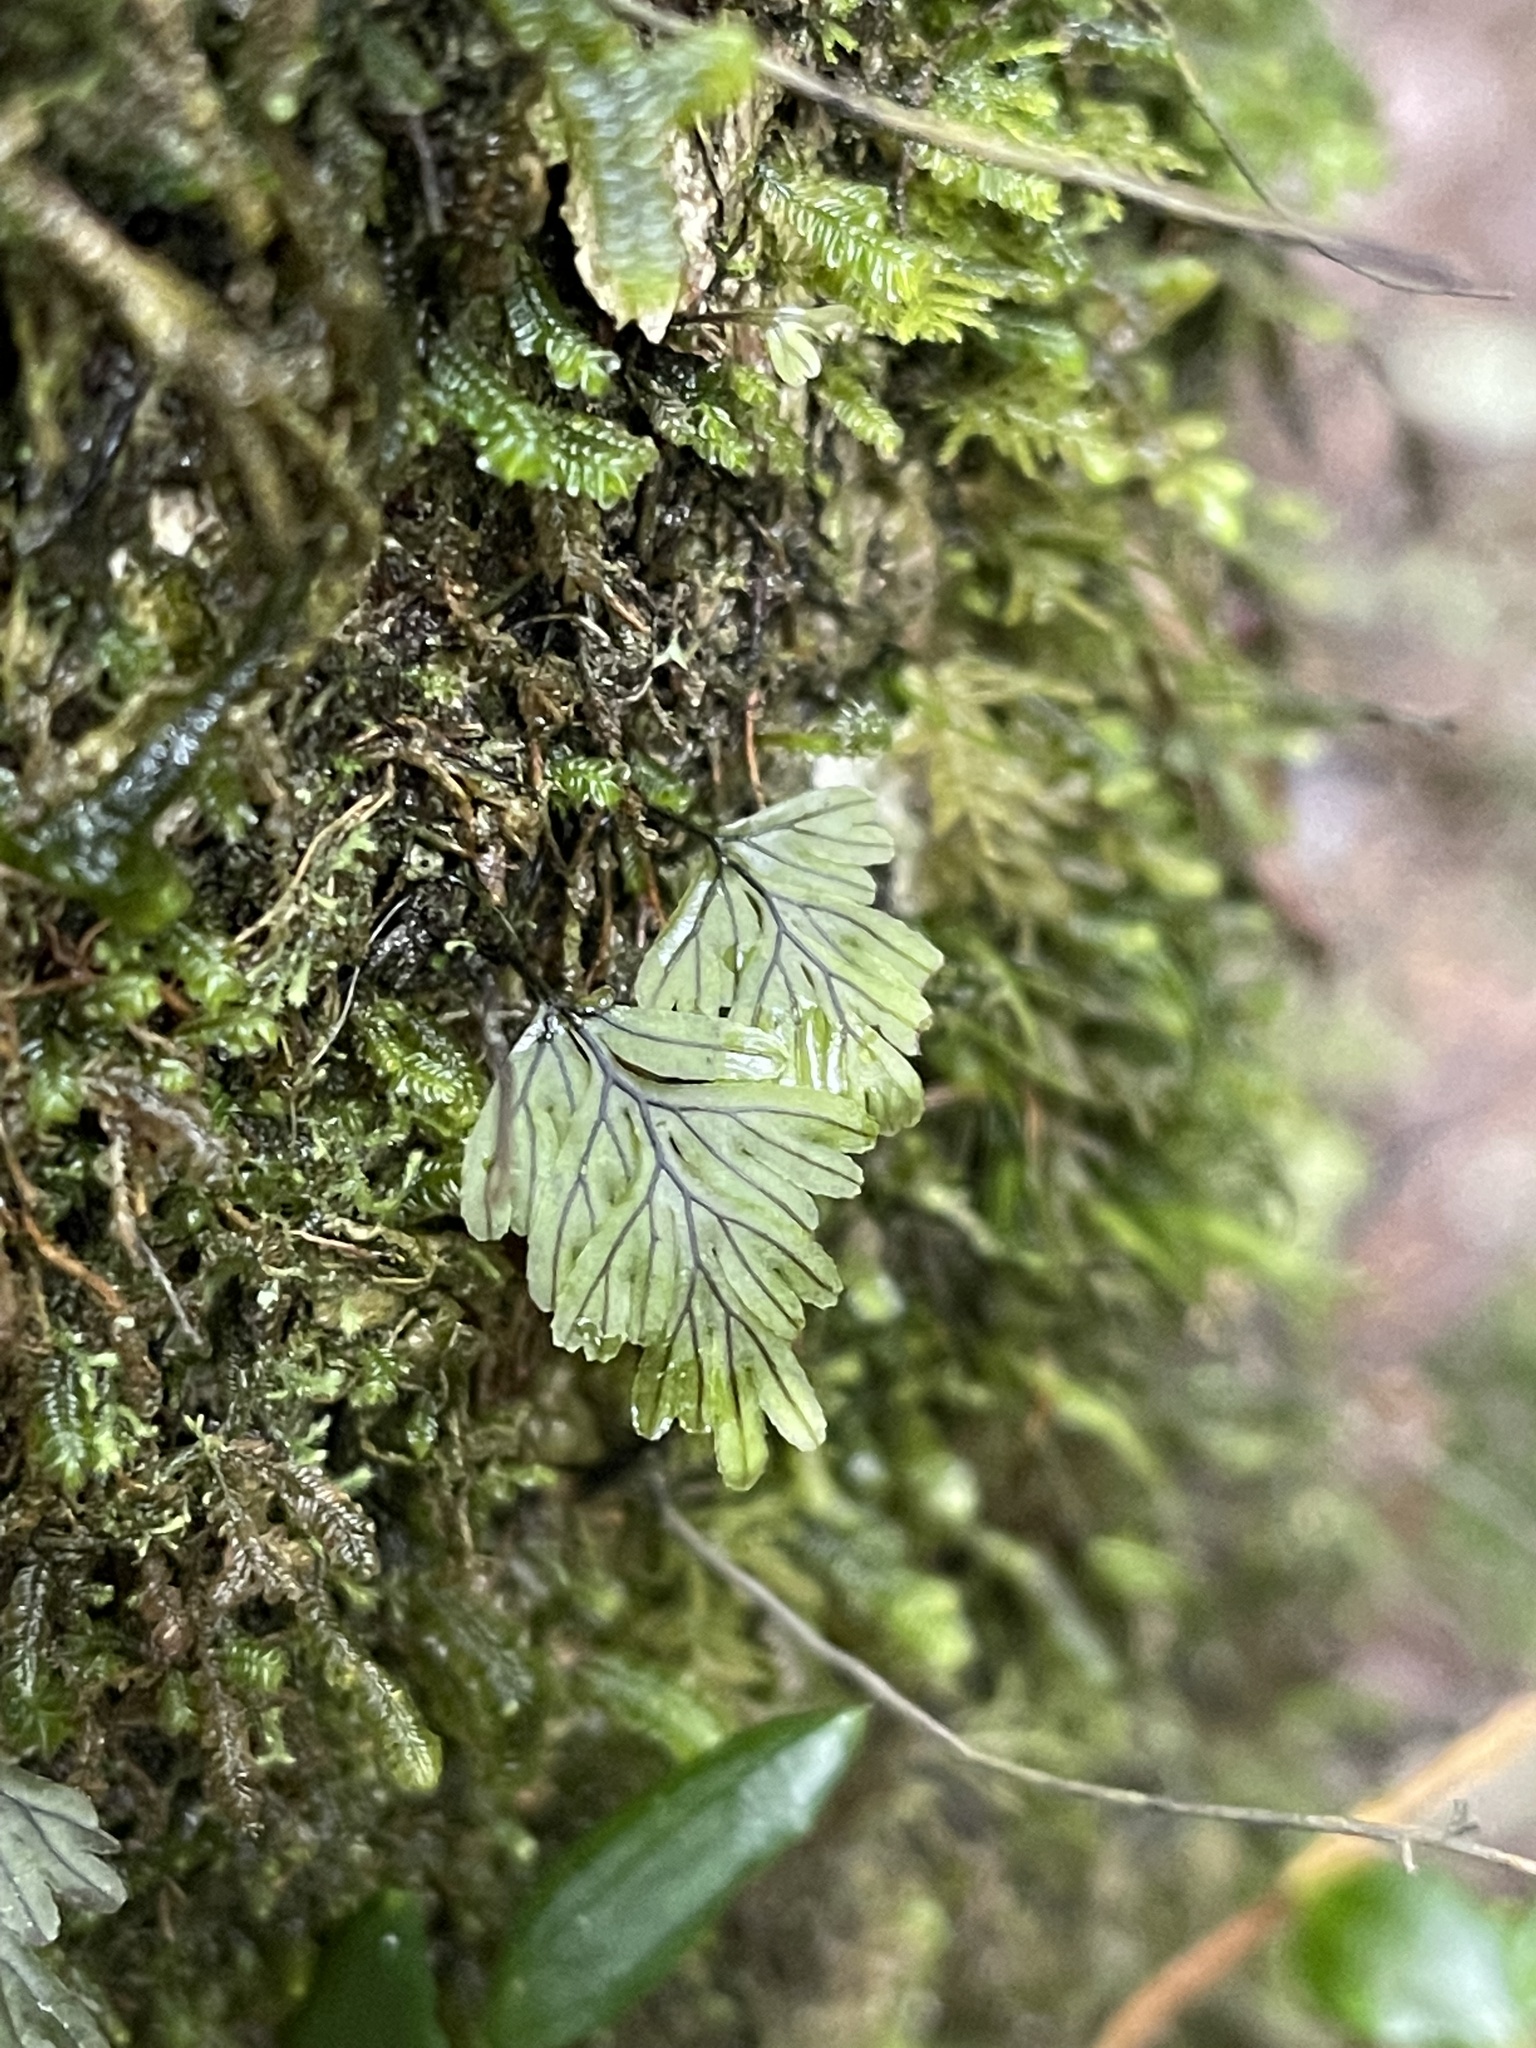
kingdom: Plantae
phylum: Tracheophyta
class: Polypodiopsida
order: Hymenophyllales
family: Hymenophyllaceae
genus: Hymenophyllum
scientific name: Hymenophyllum peltatum
